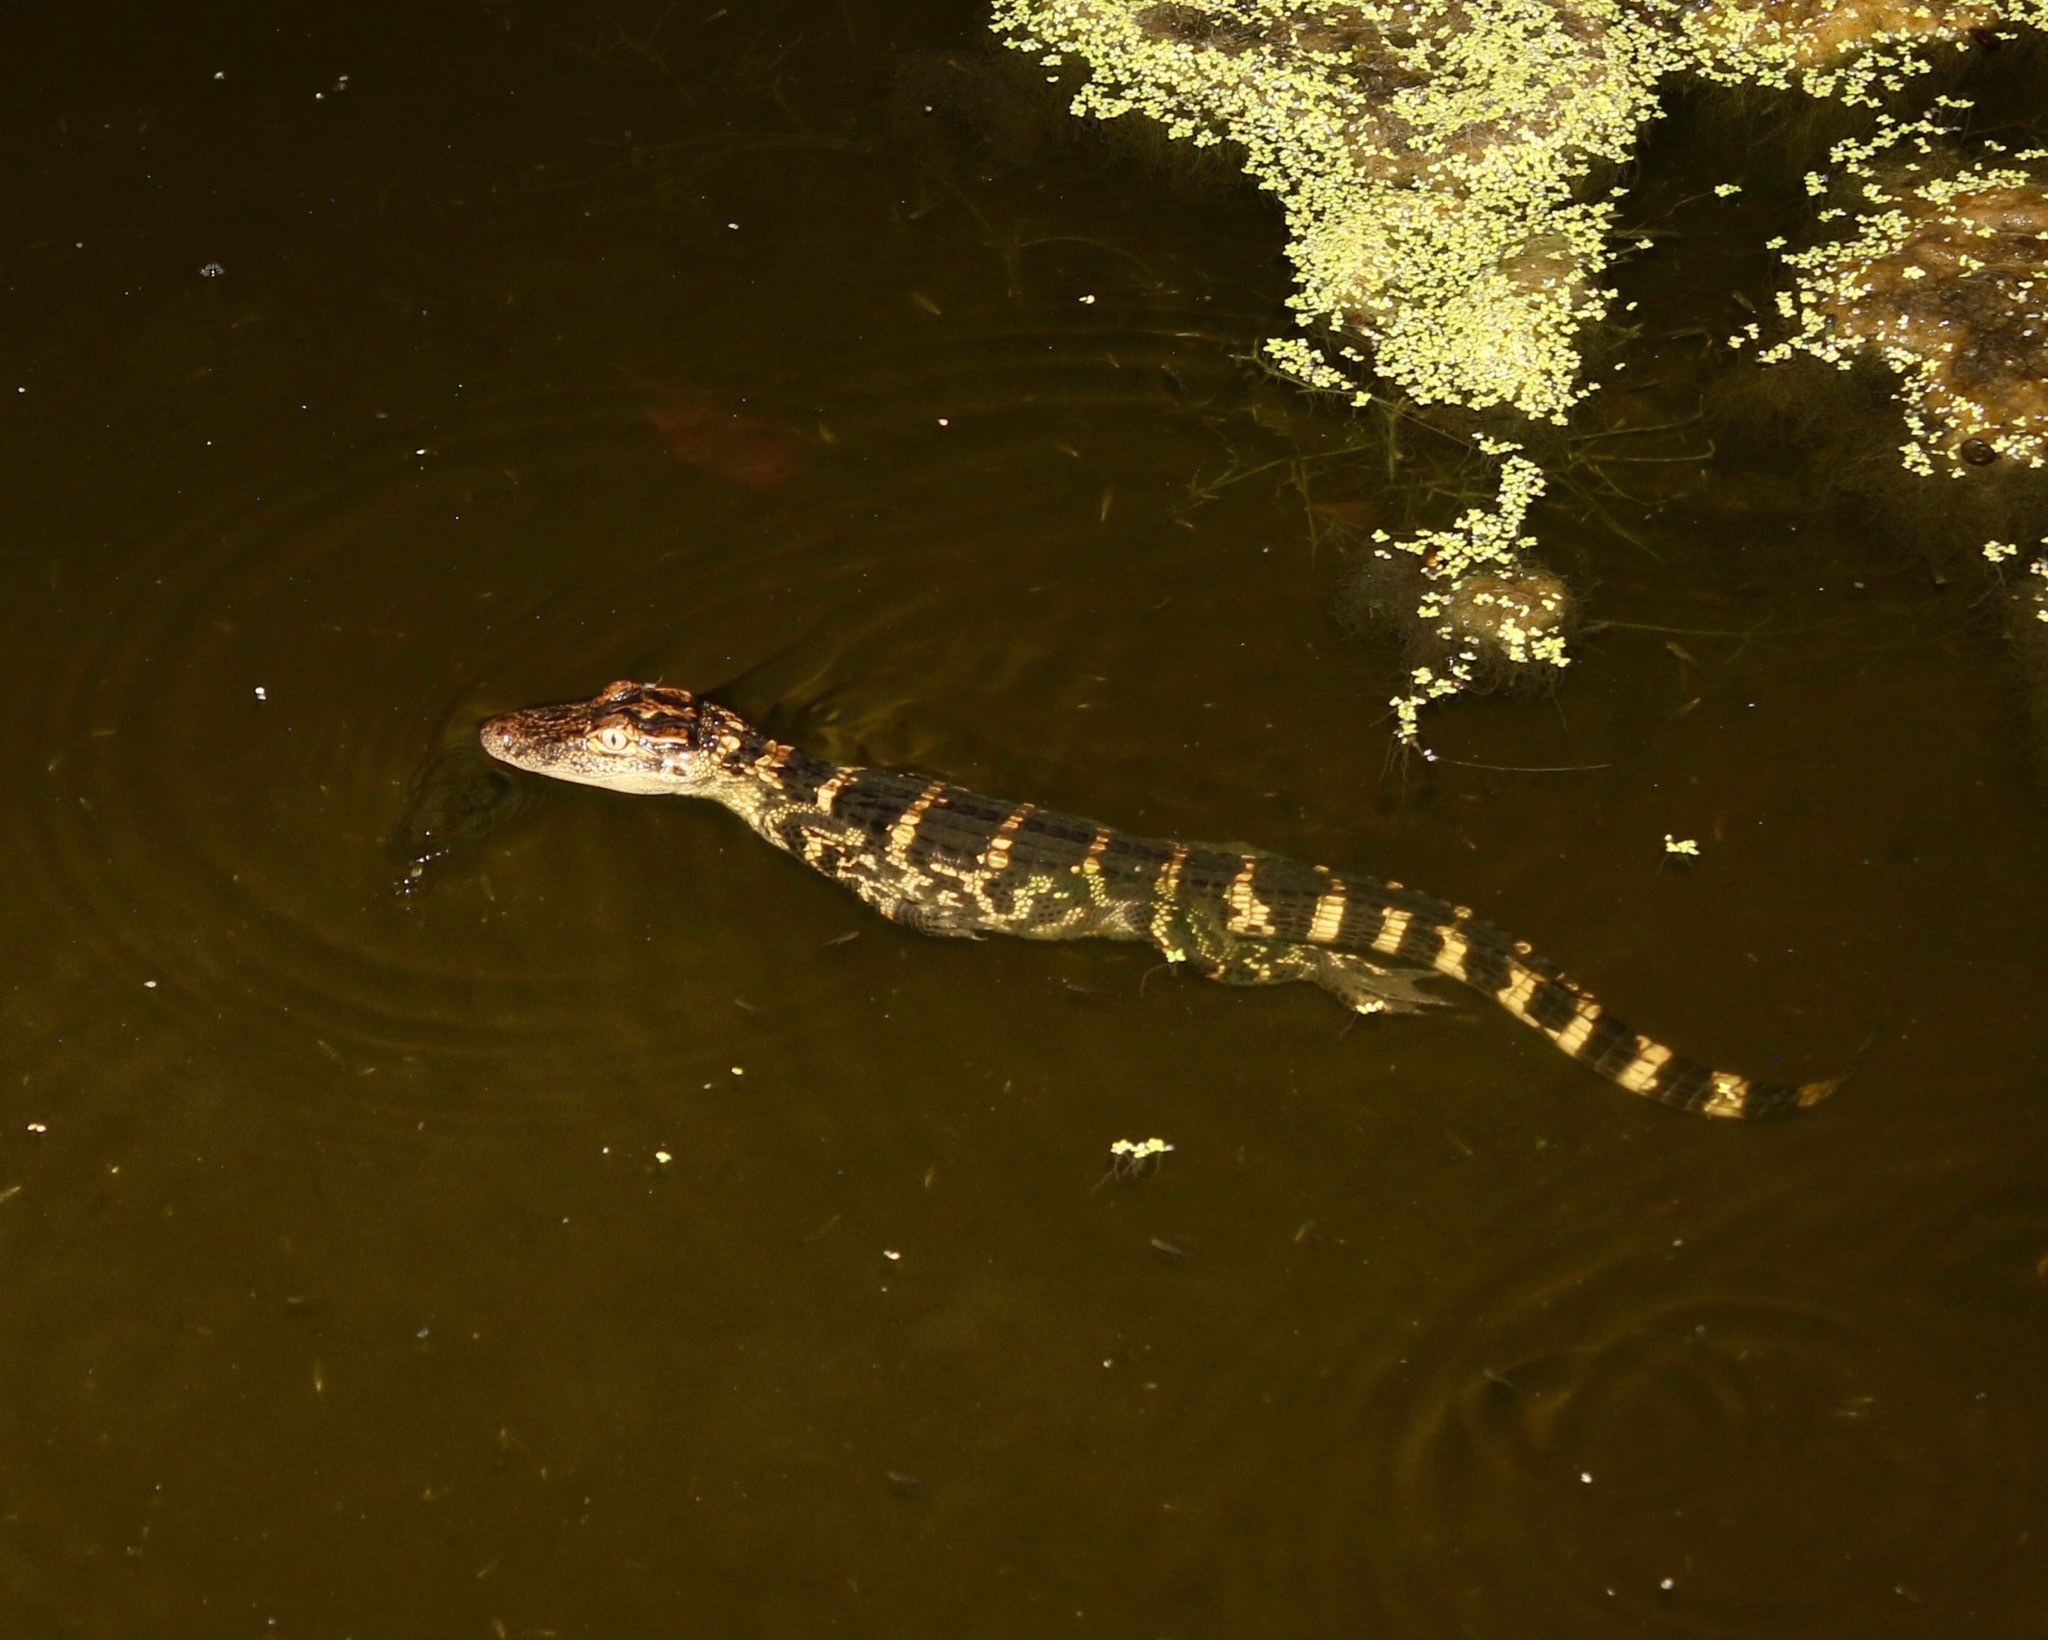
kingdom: Animalia
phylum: Chordata
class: Crocodylia
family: Alligatoridae
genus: Alligator
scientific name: Alligator mississippiensis
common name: American alligator
